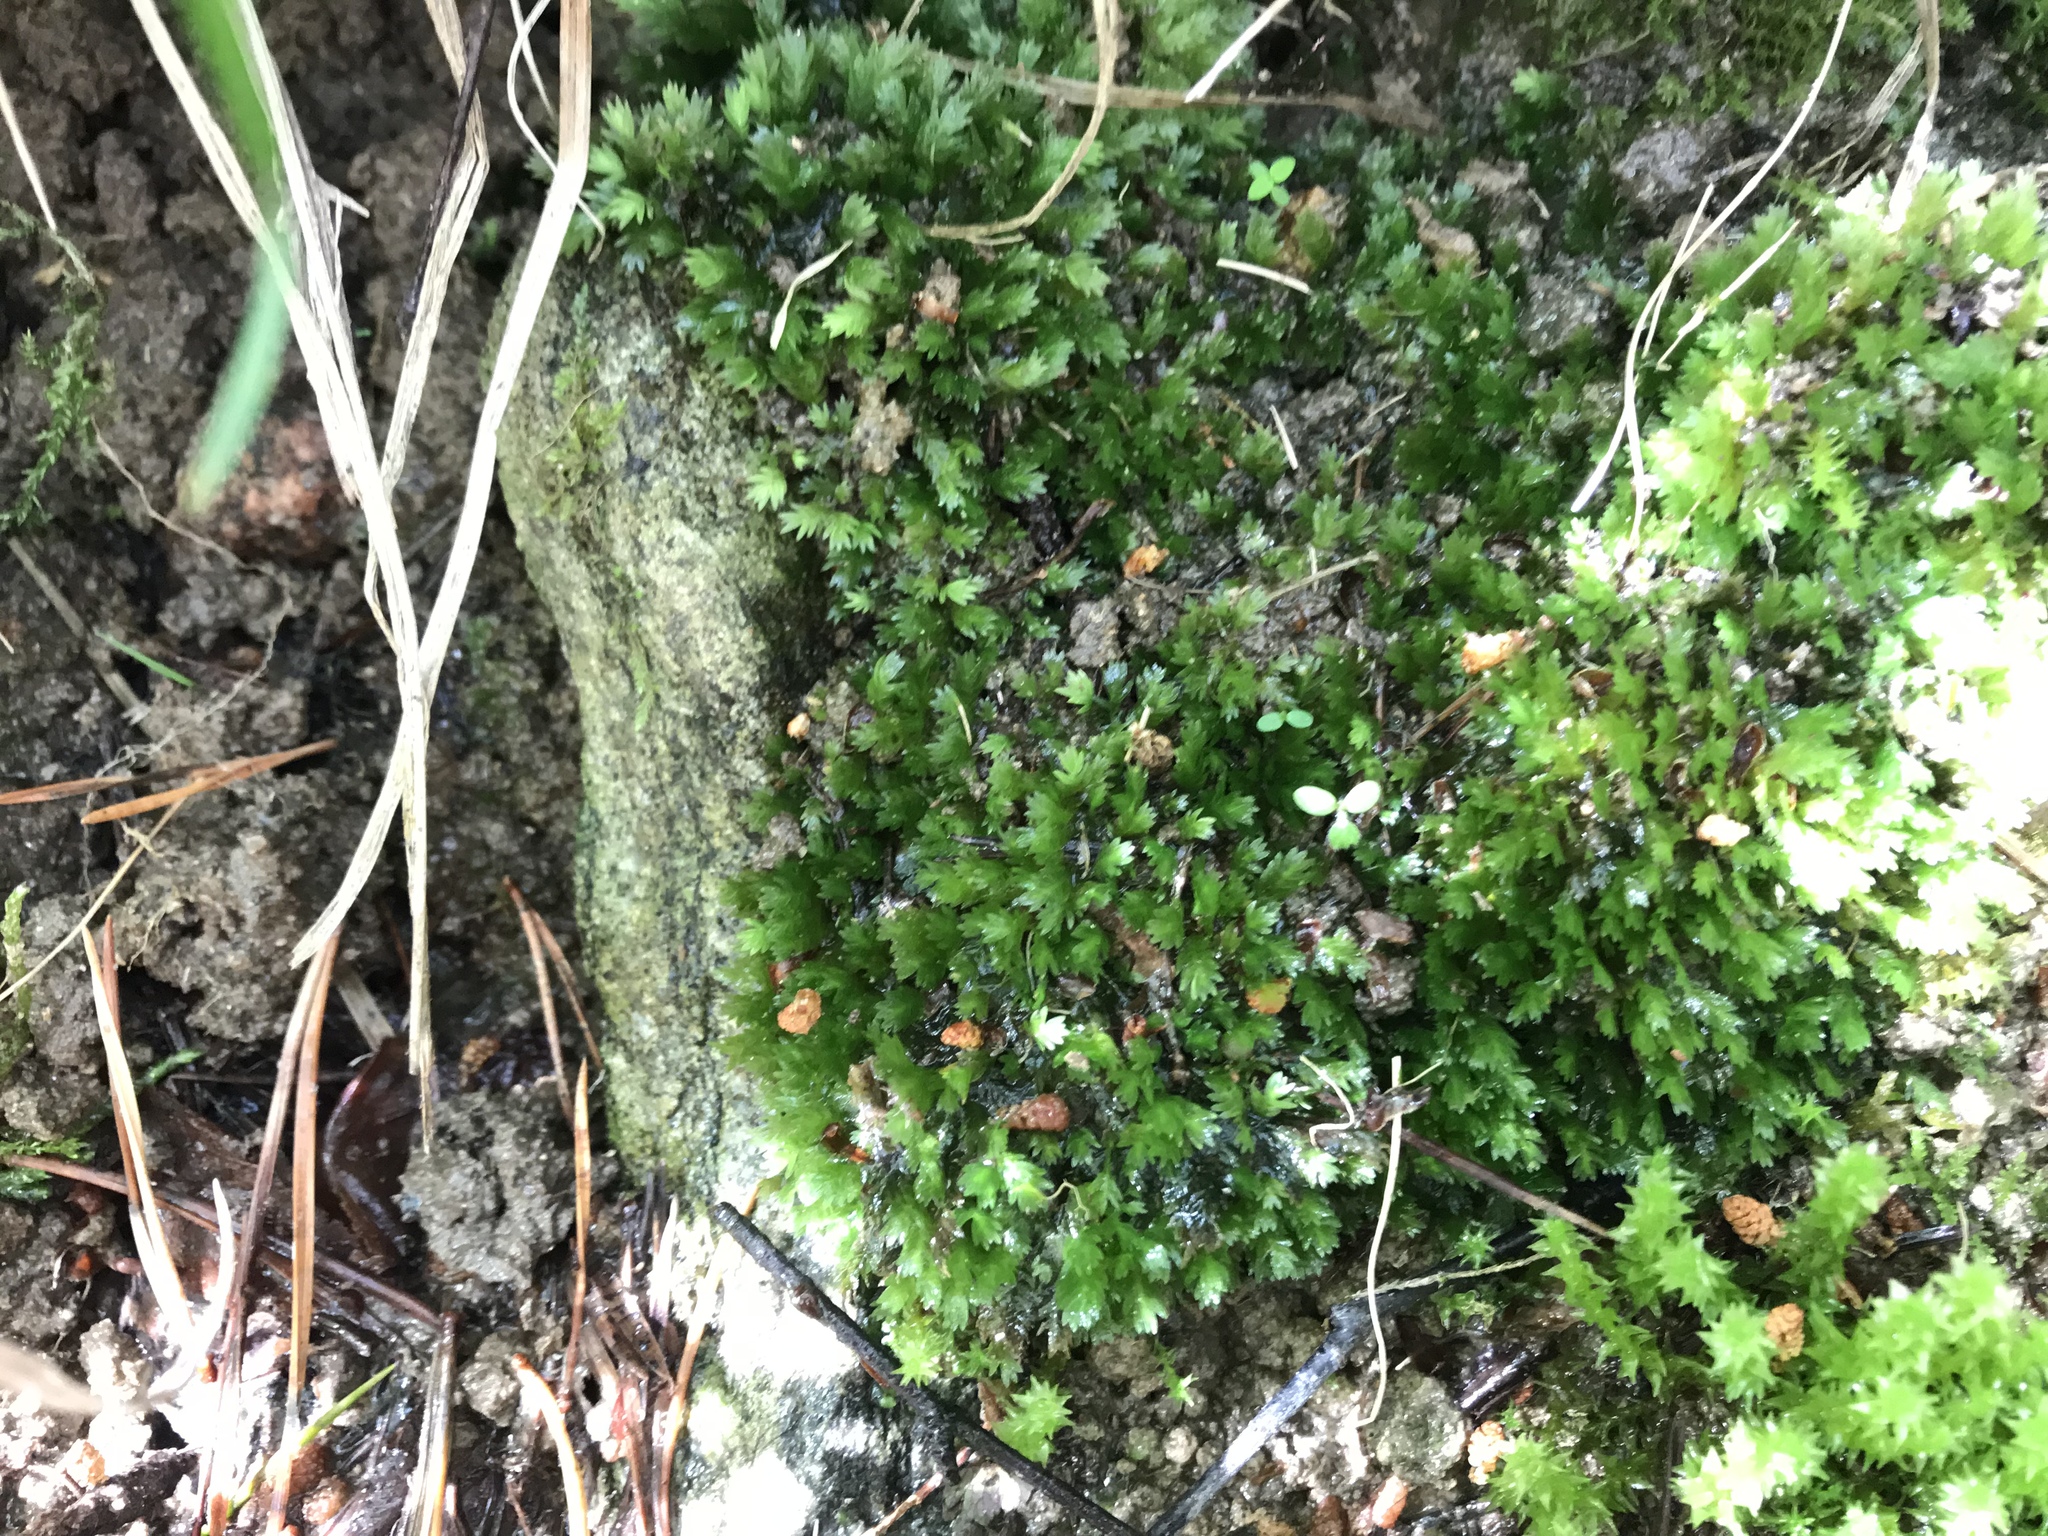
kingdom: Plantae
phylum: Bryophyta
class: Bryopsida
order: Dicranales
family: Fissidentaceae
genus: Fissidens
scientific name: Fissidens taxifolius
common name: Yew-leaved pocket moss
